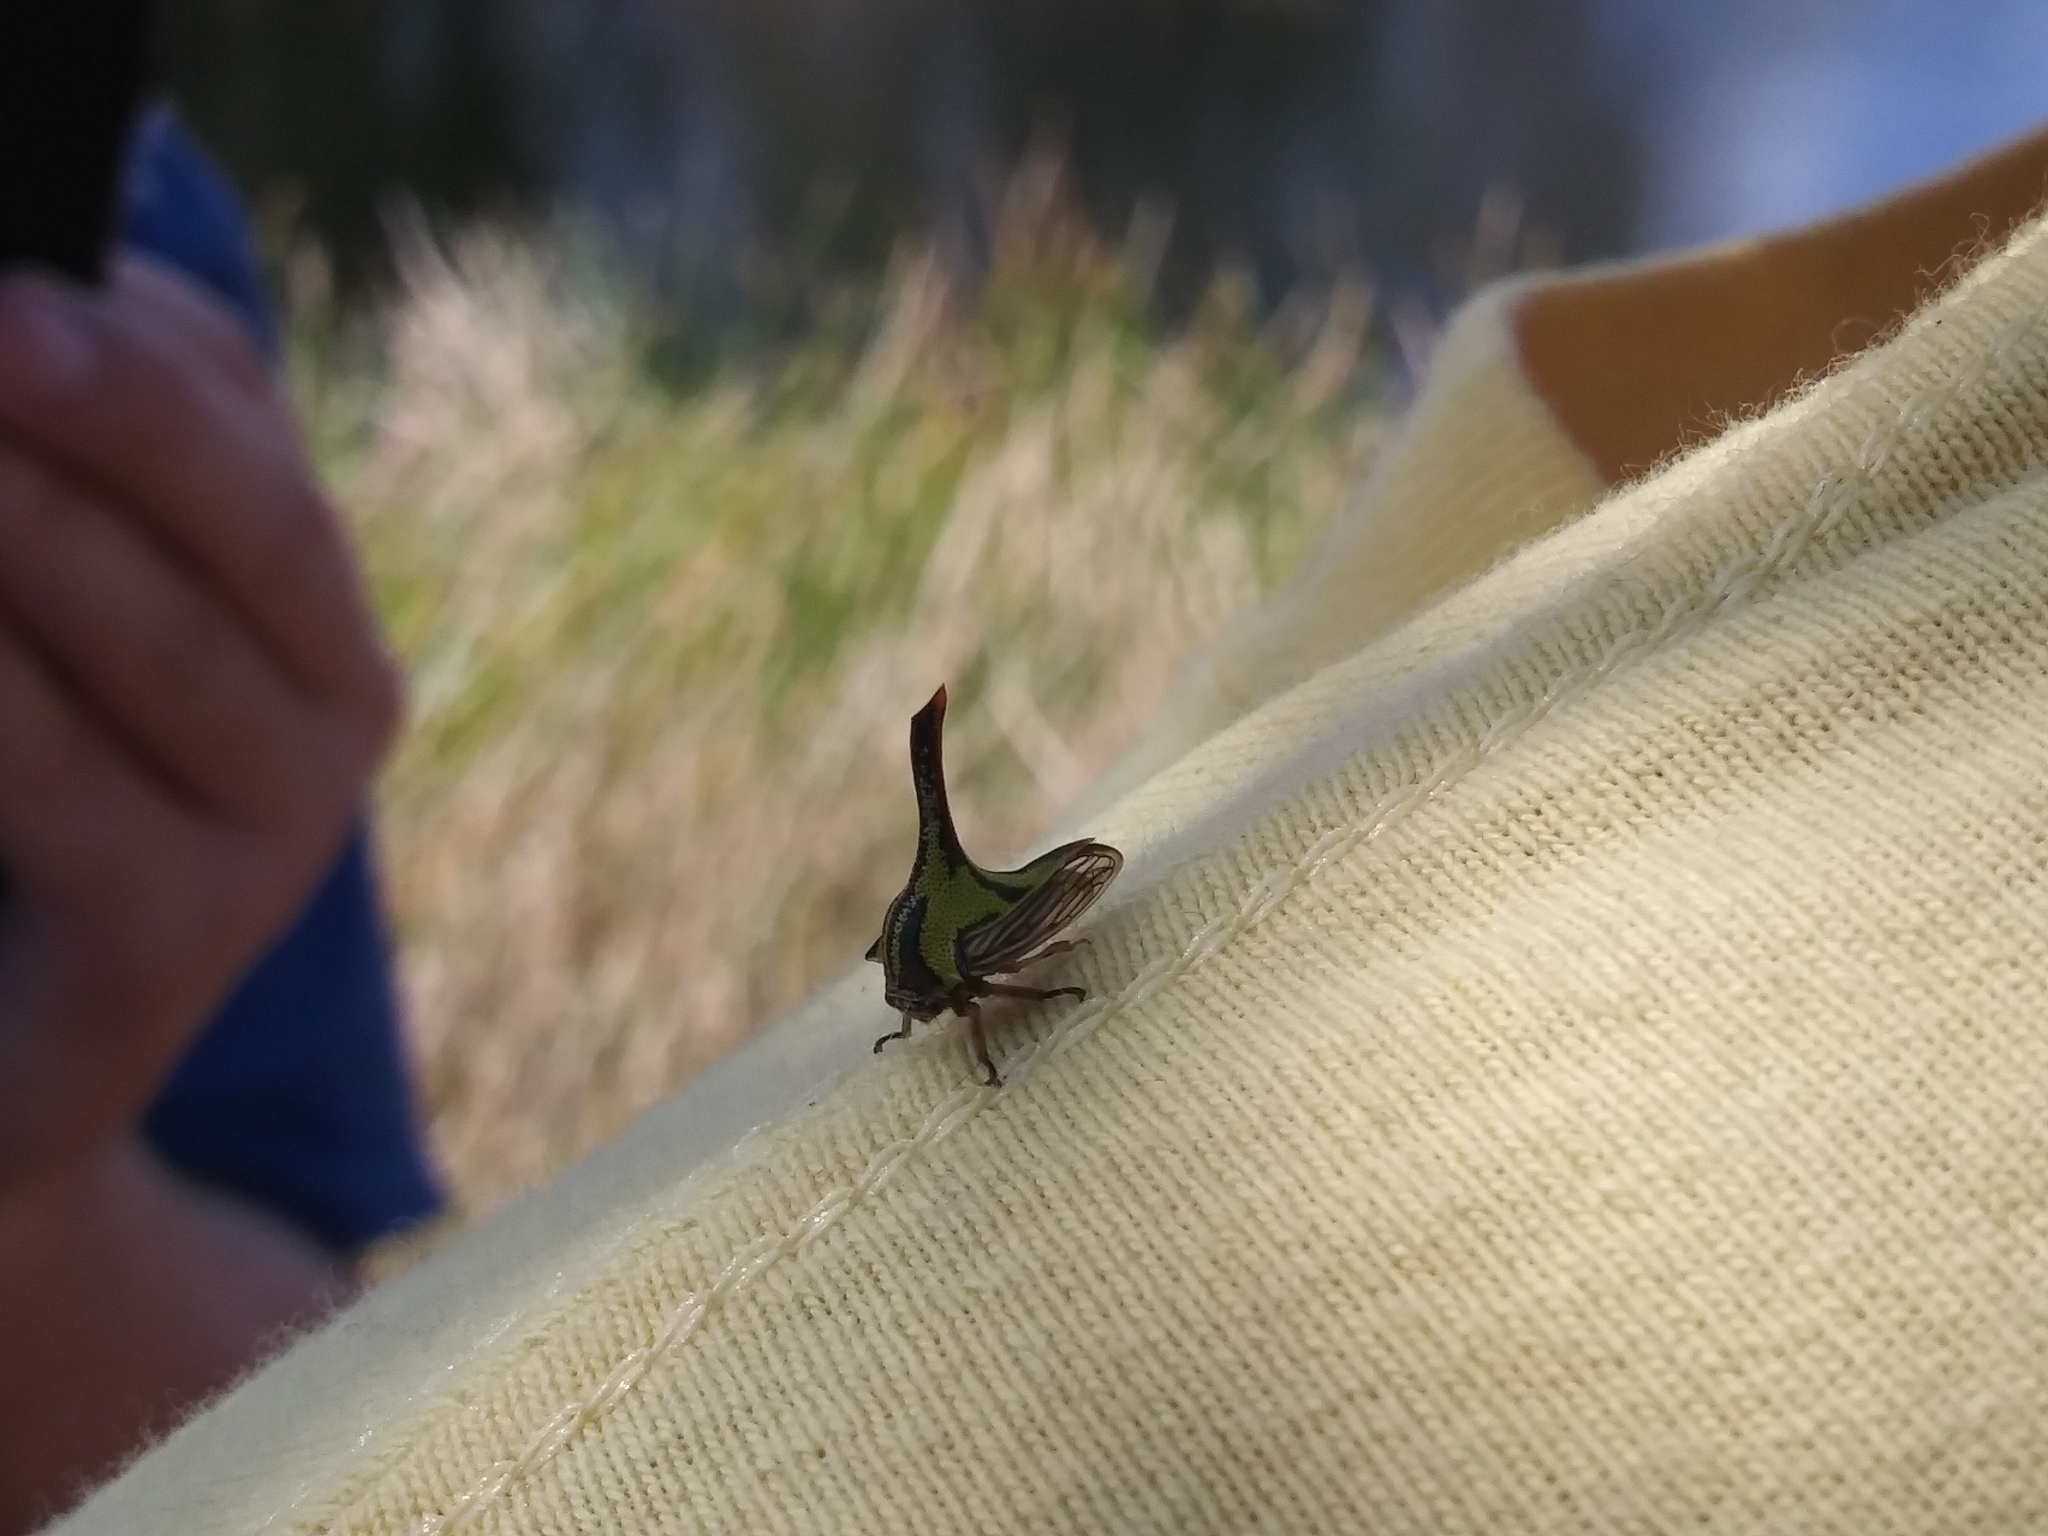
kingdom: Animalia
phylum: Arthropoda
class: Insecta
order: Hemiptera
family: Membracidae
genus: Umbonia
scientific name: Umbonia crassicornis
